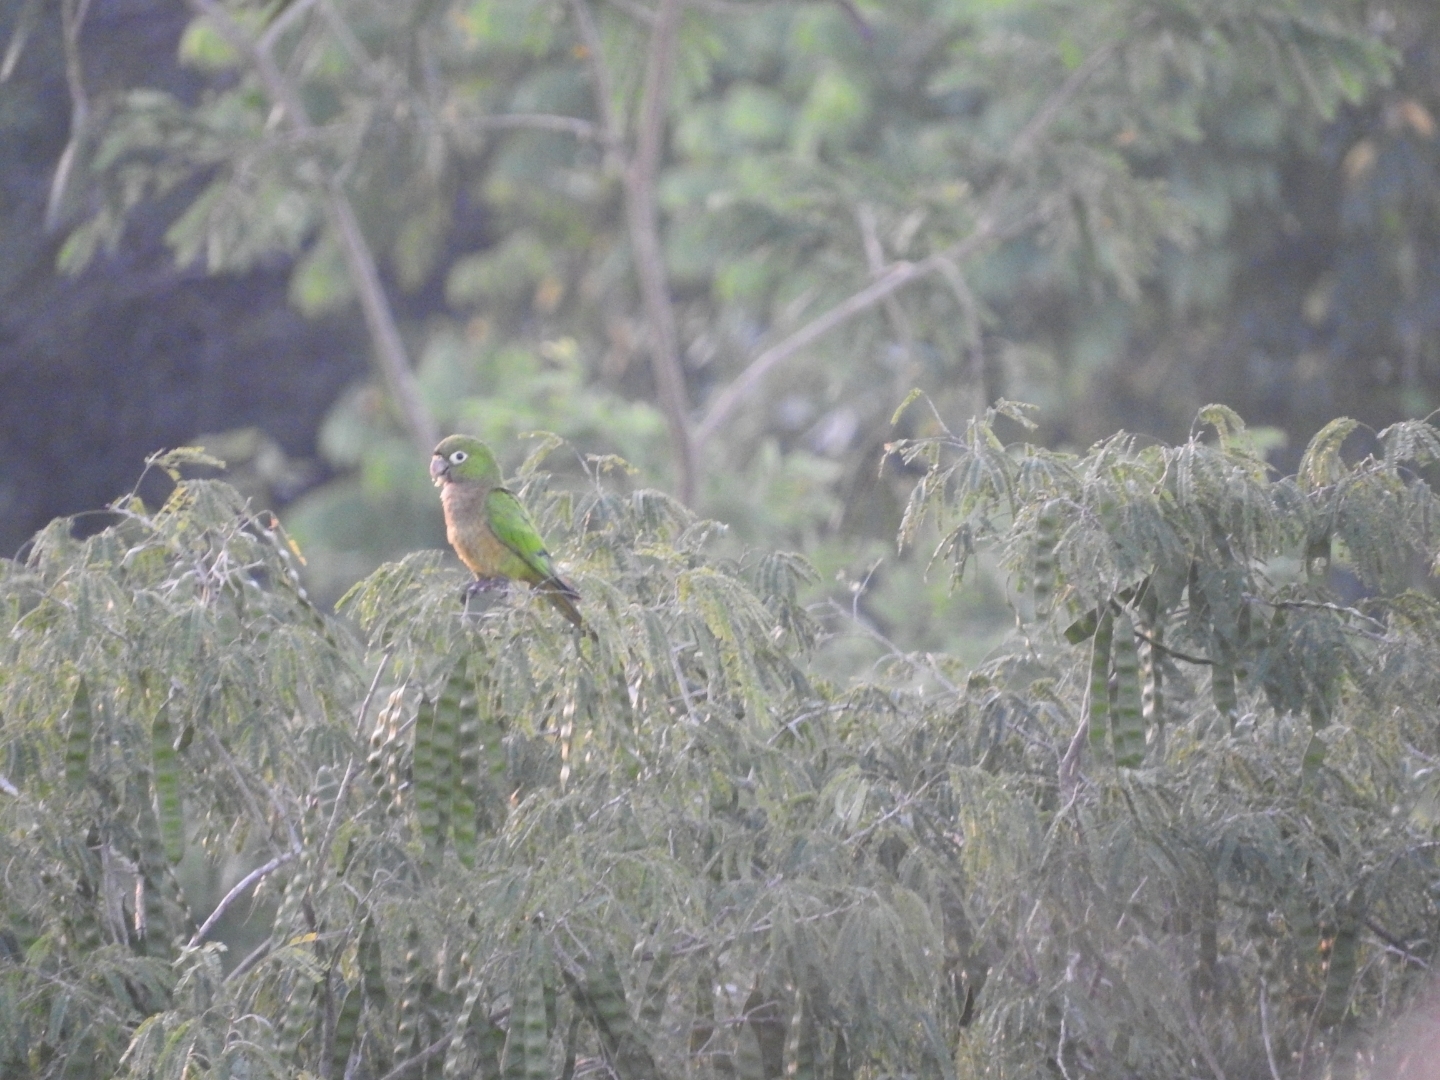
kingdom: Animalia
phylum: Chordata
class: Aves
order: Psittaciformes
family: Psittacidae
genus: Aratinga
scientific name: Aratinga nana
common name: Olive-throated parakeet
